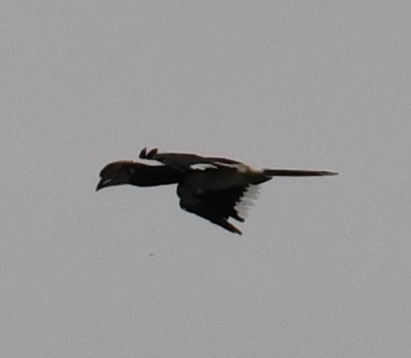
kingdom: Animalia
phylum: Chordata
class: Aves
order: Bucerotiformes
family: Bucerotidae
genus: Bycanistes
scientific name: Bycanistes bucinator
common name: Trumpeter hornbill
